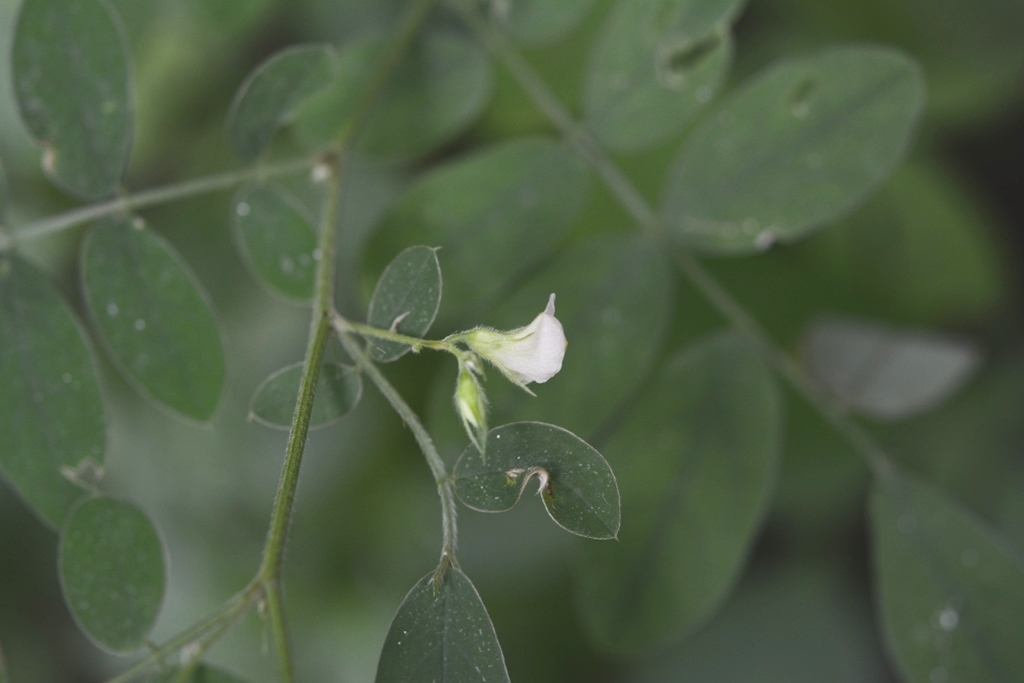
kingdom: Plantae
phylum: Tracheophyta
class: Magnoliopsida
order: Fabales
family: Fabaceae
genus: Coursetia
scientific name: Coursetia caribaea
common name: Anil falso
